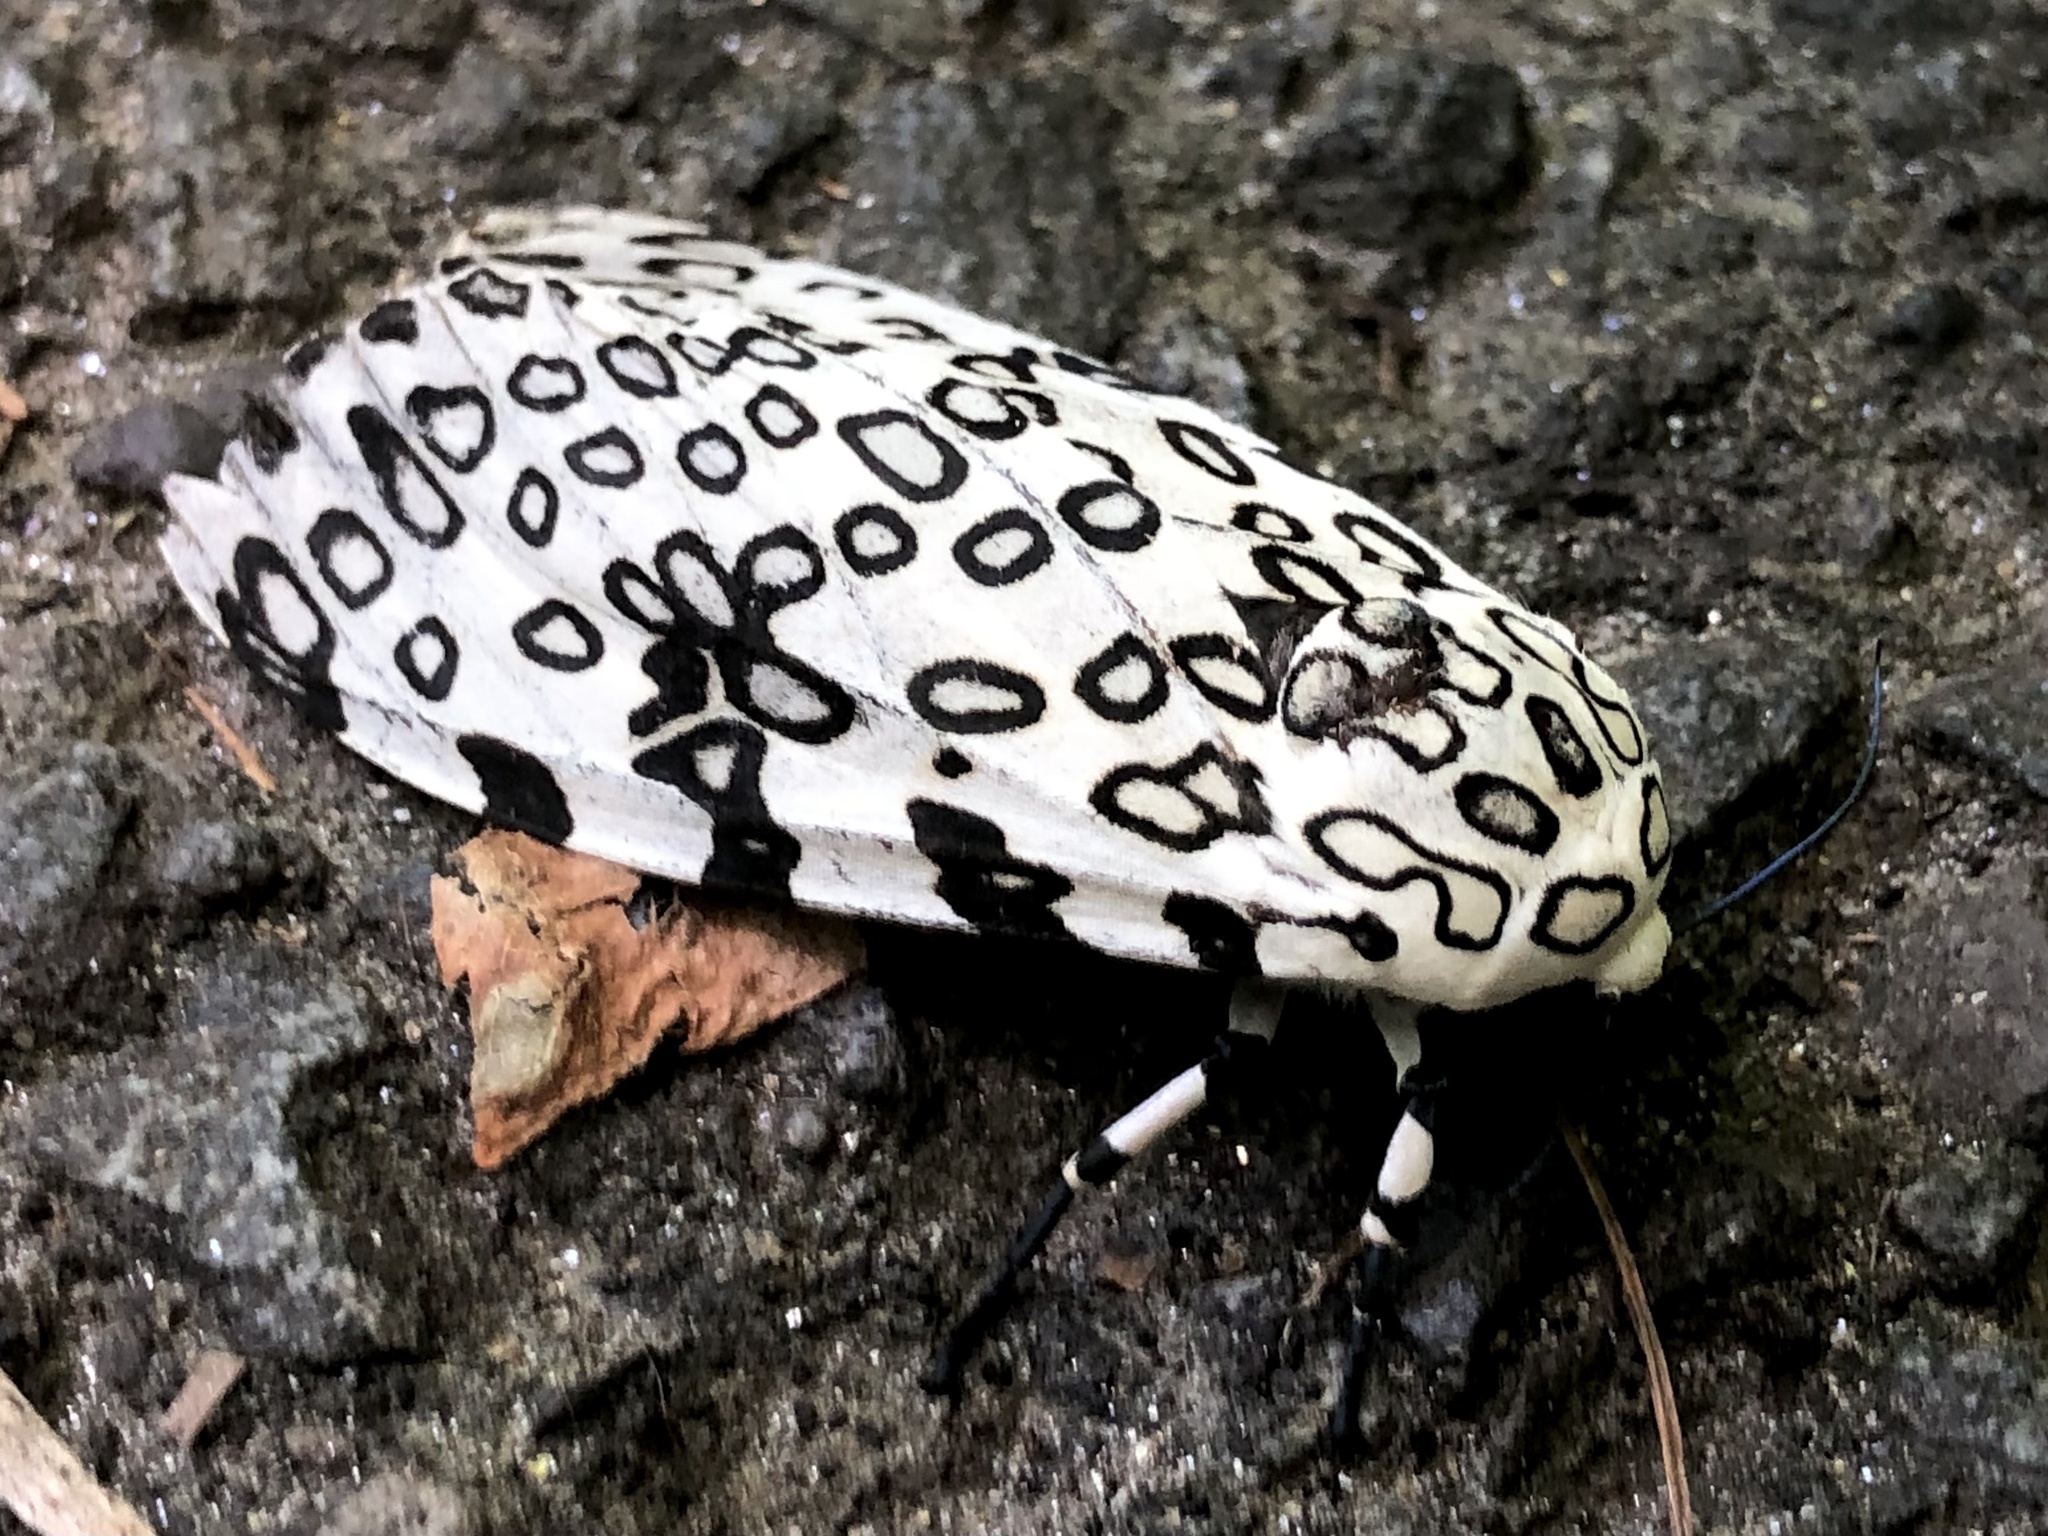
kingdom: Animalia
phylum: Arthropoda
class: Insecta
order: Lepidoptera
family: Erebidae
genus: Hypercompe
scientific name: Hypercompe scribonia
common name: Giant leopard moth
